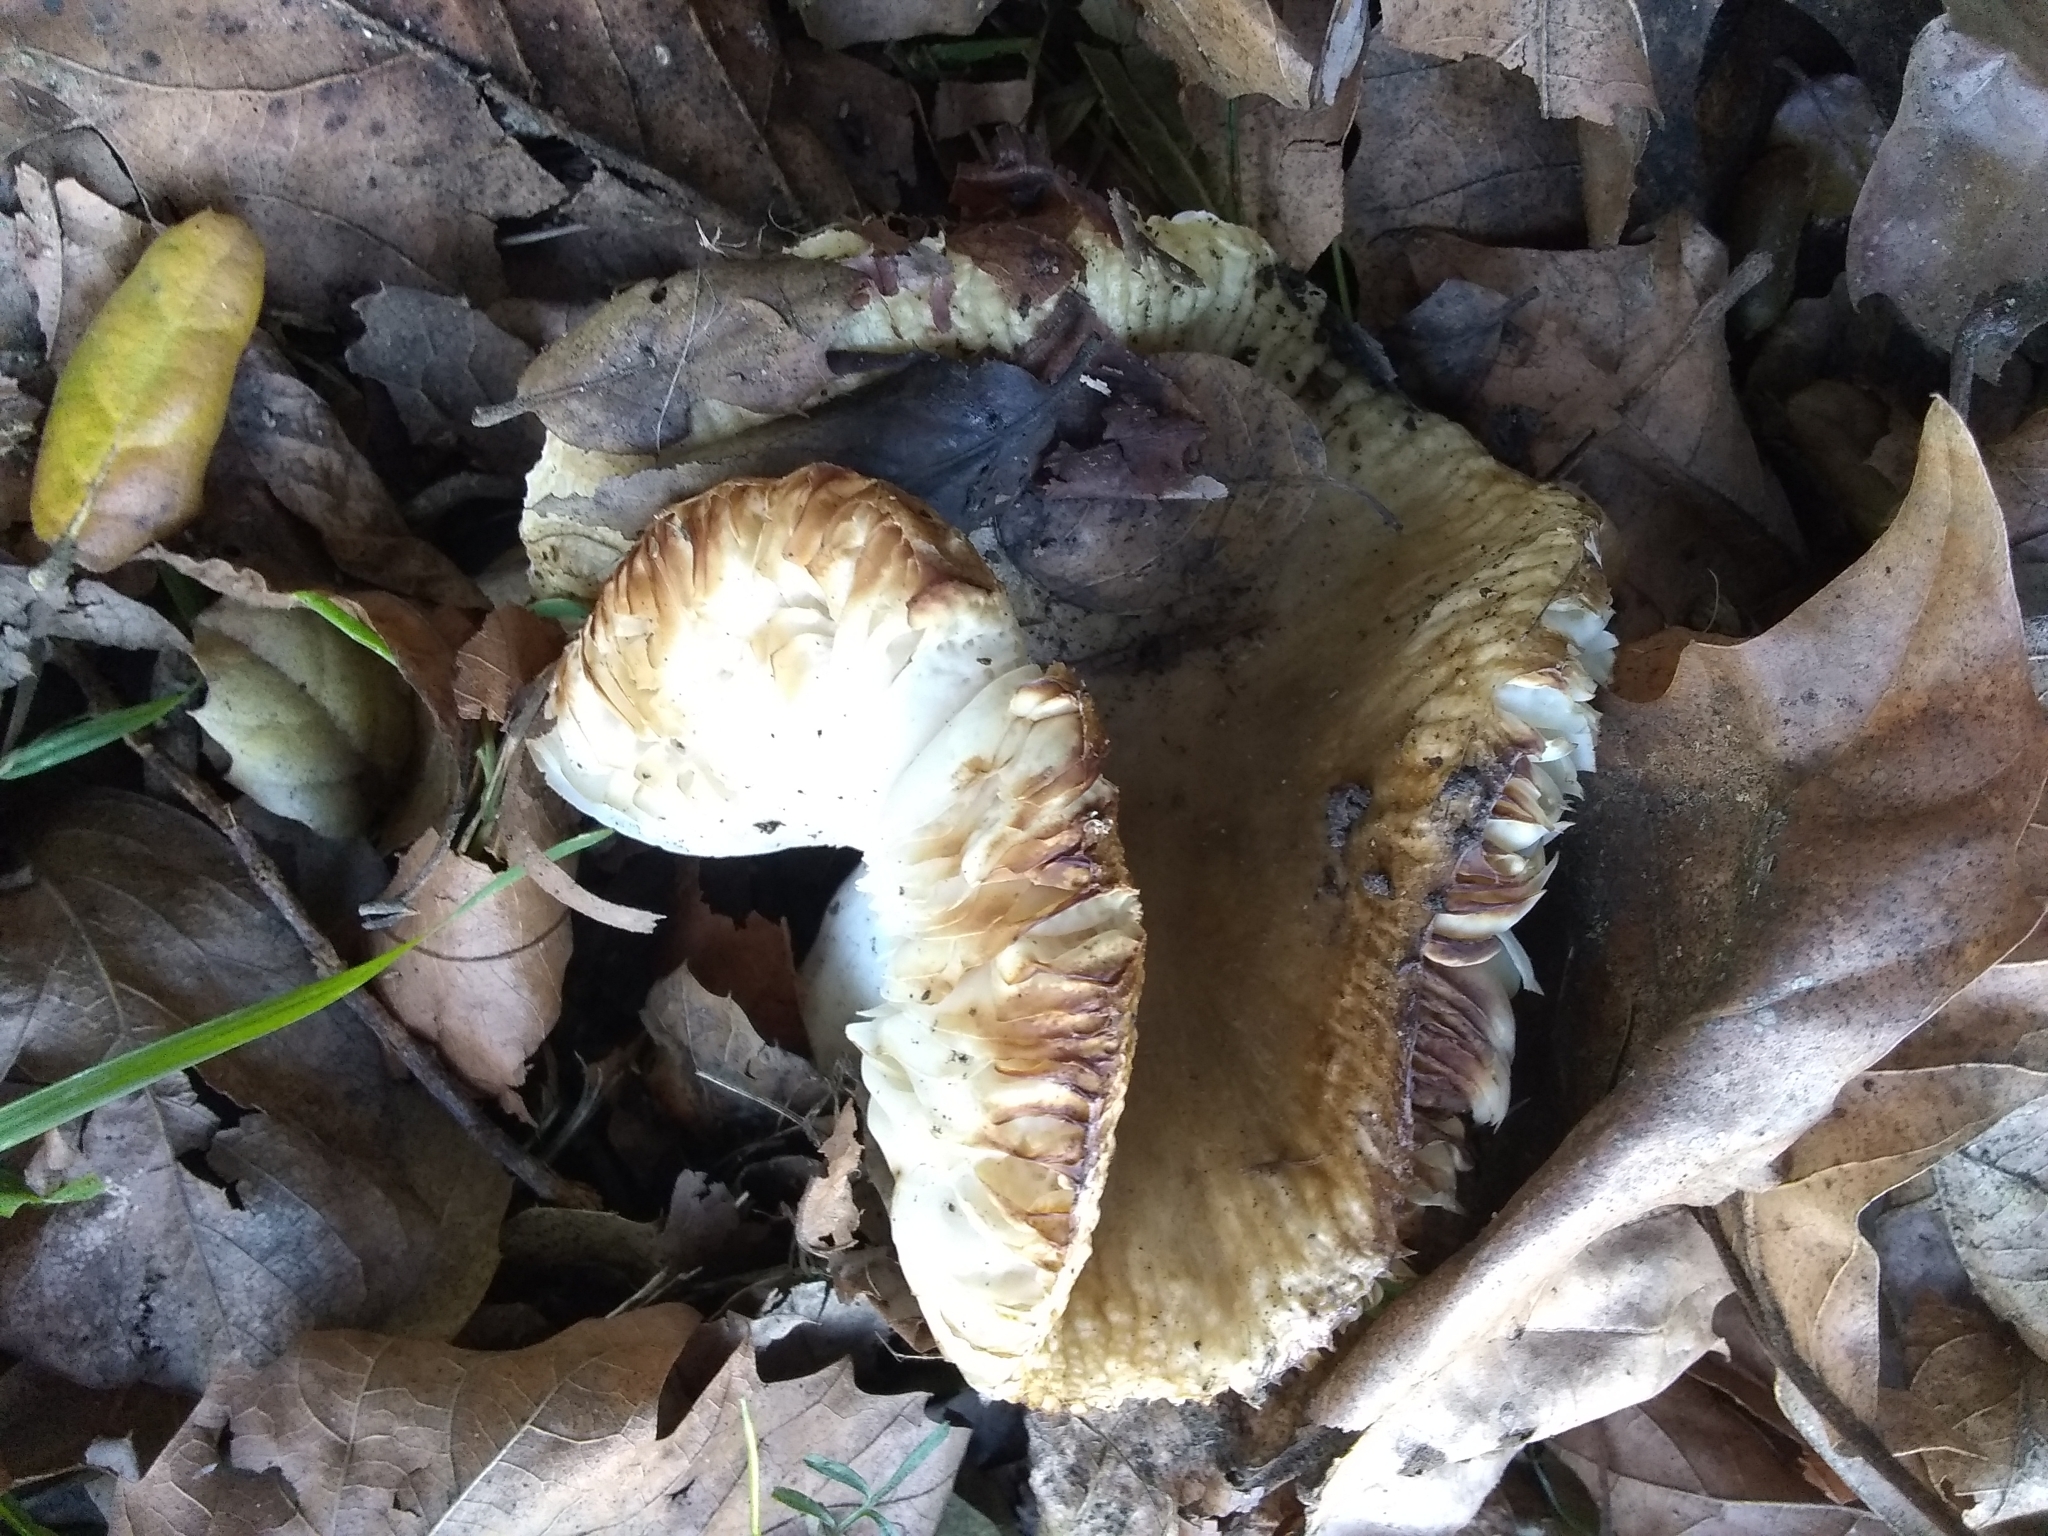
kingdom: Fungi
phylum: Basidiomycota
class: Agaricomycetes
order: Russulales
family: Russulaceae
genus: Russula
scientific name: Russula cerolens
